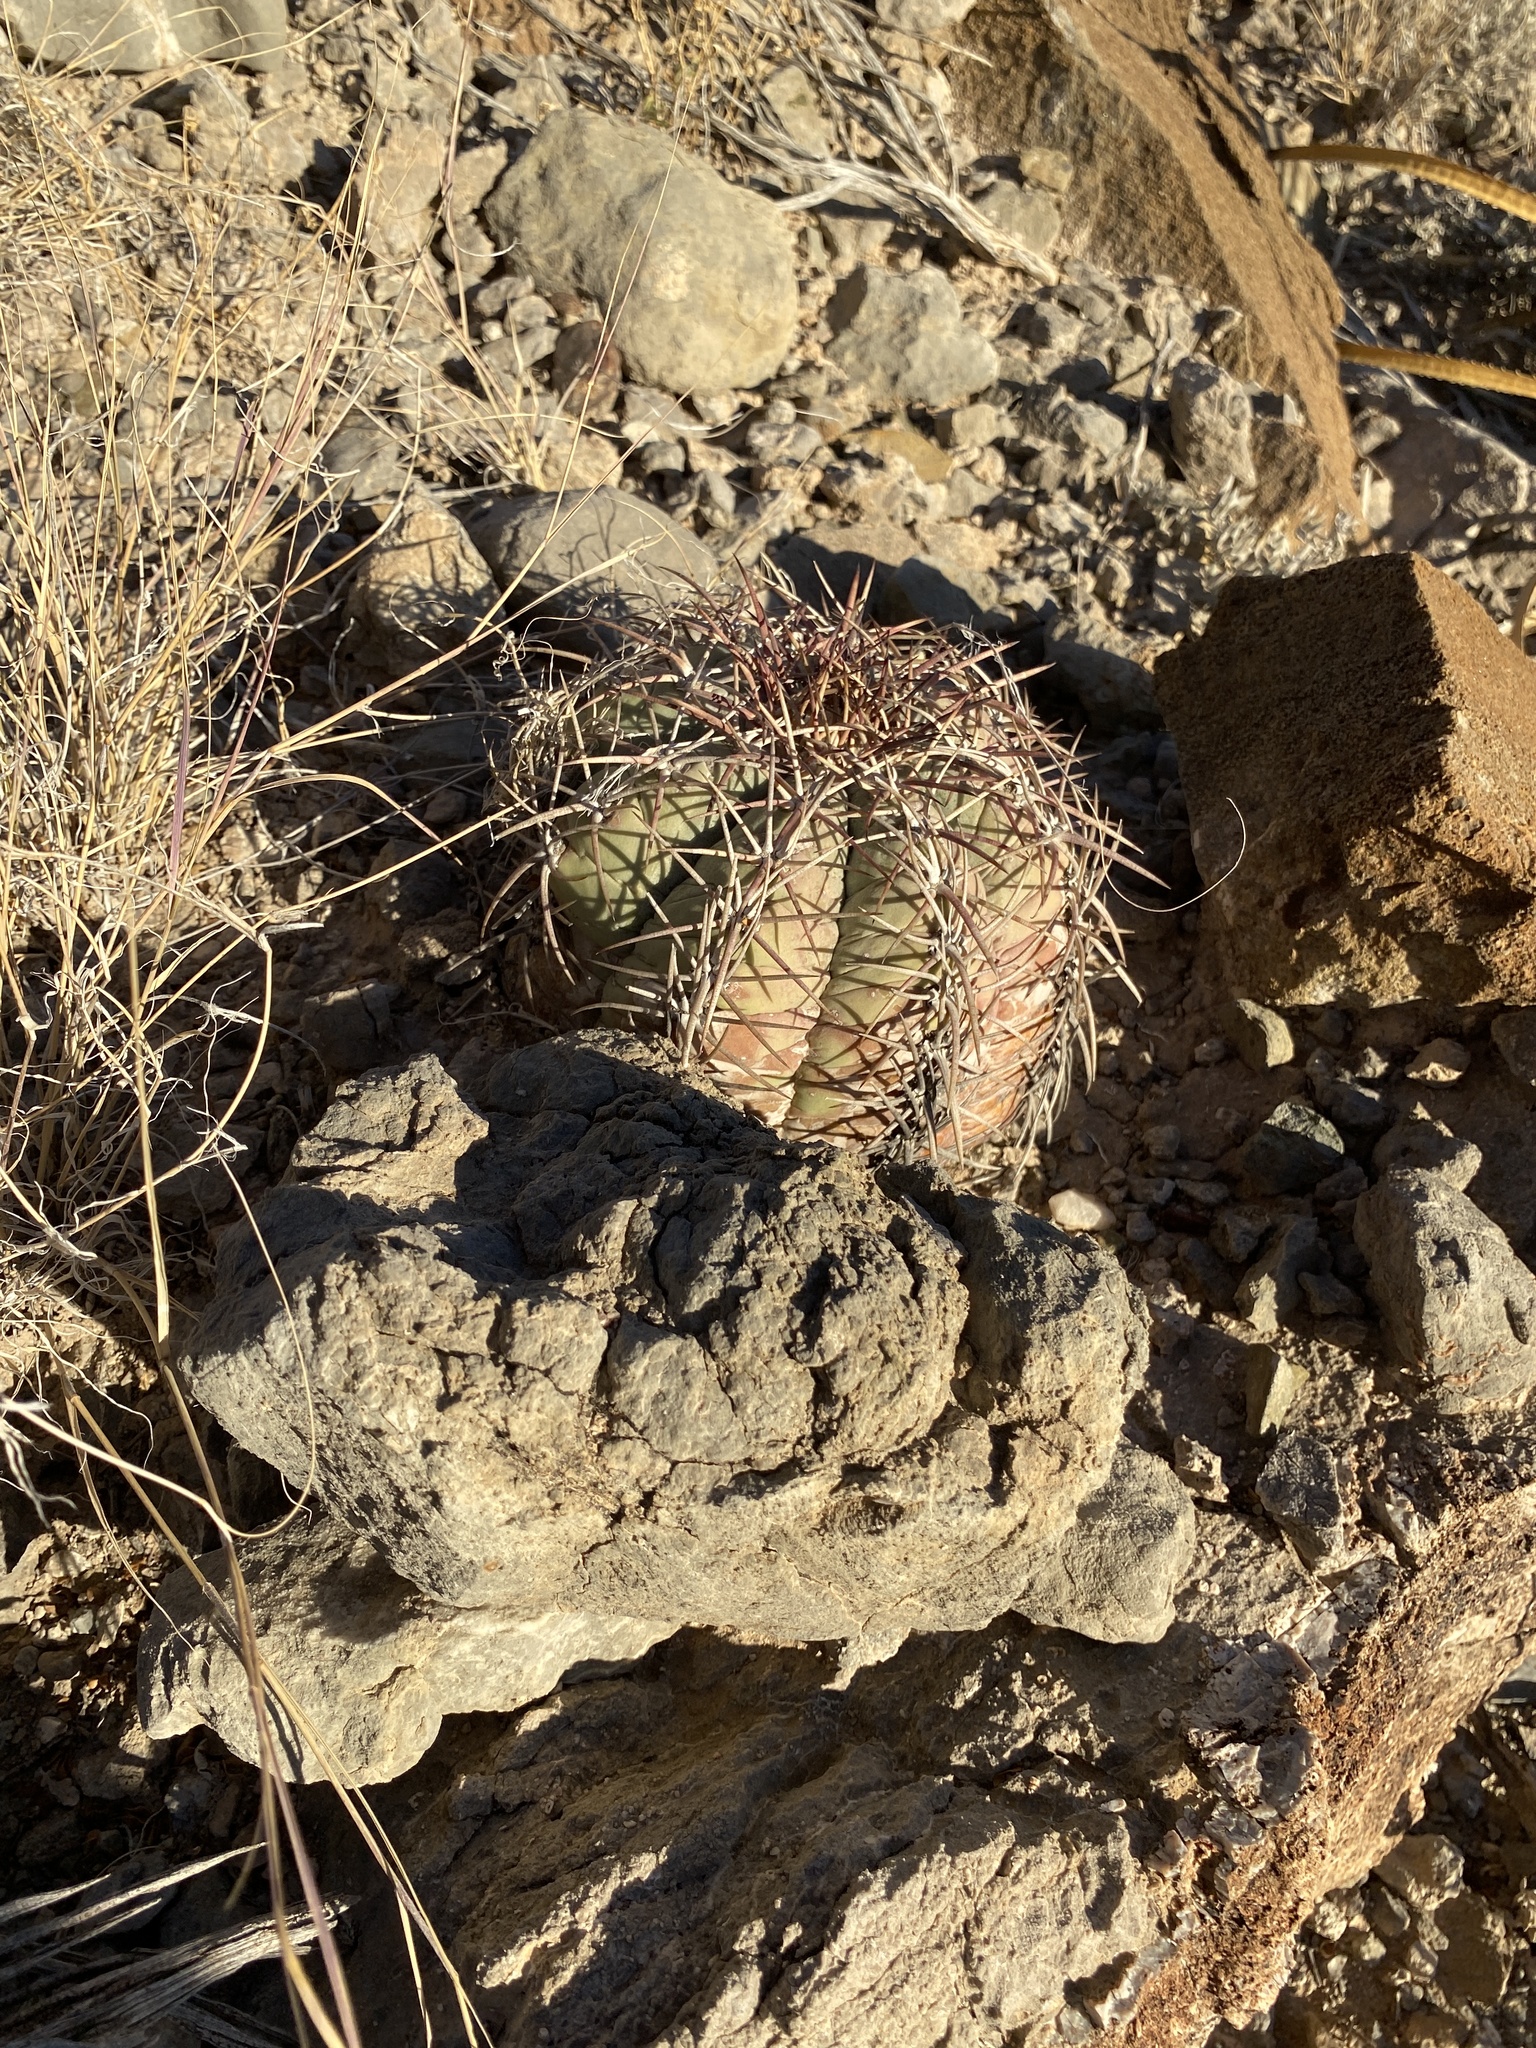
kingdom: Plantae
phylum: Tracheophyta
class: Magnoliopsida
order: Caryophyllales
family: Cactaceae
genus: Echinocactus
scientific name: Echinocactus horizonthalonius
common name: Devilshead
